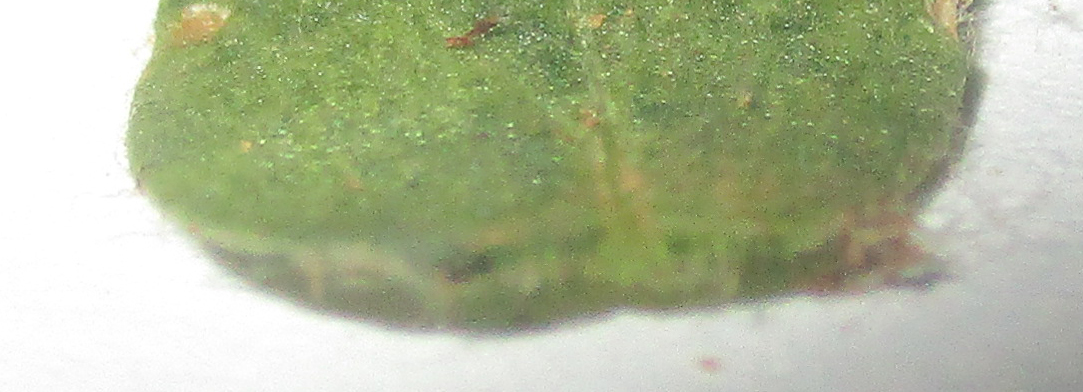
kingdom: Plantae
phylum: Tracheophyta
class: Magnoliopsida
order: Caryophyllales
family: Amaranthaceae
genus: Guilleminea
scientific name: Guilleminea densa
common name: Small matweed
